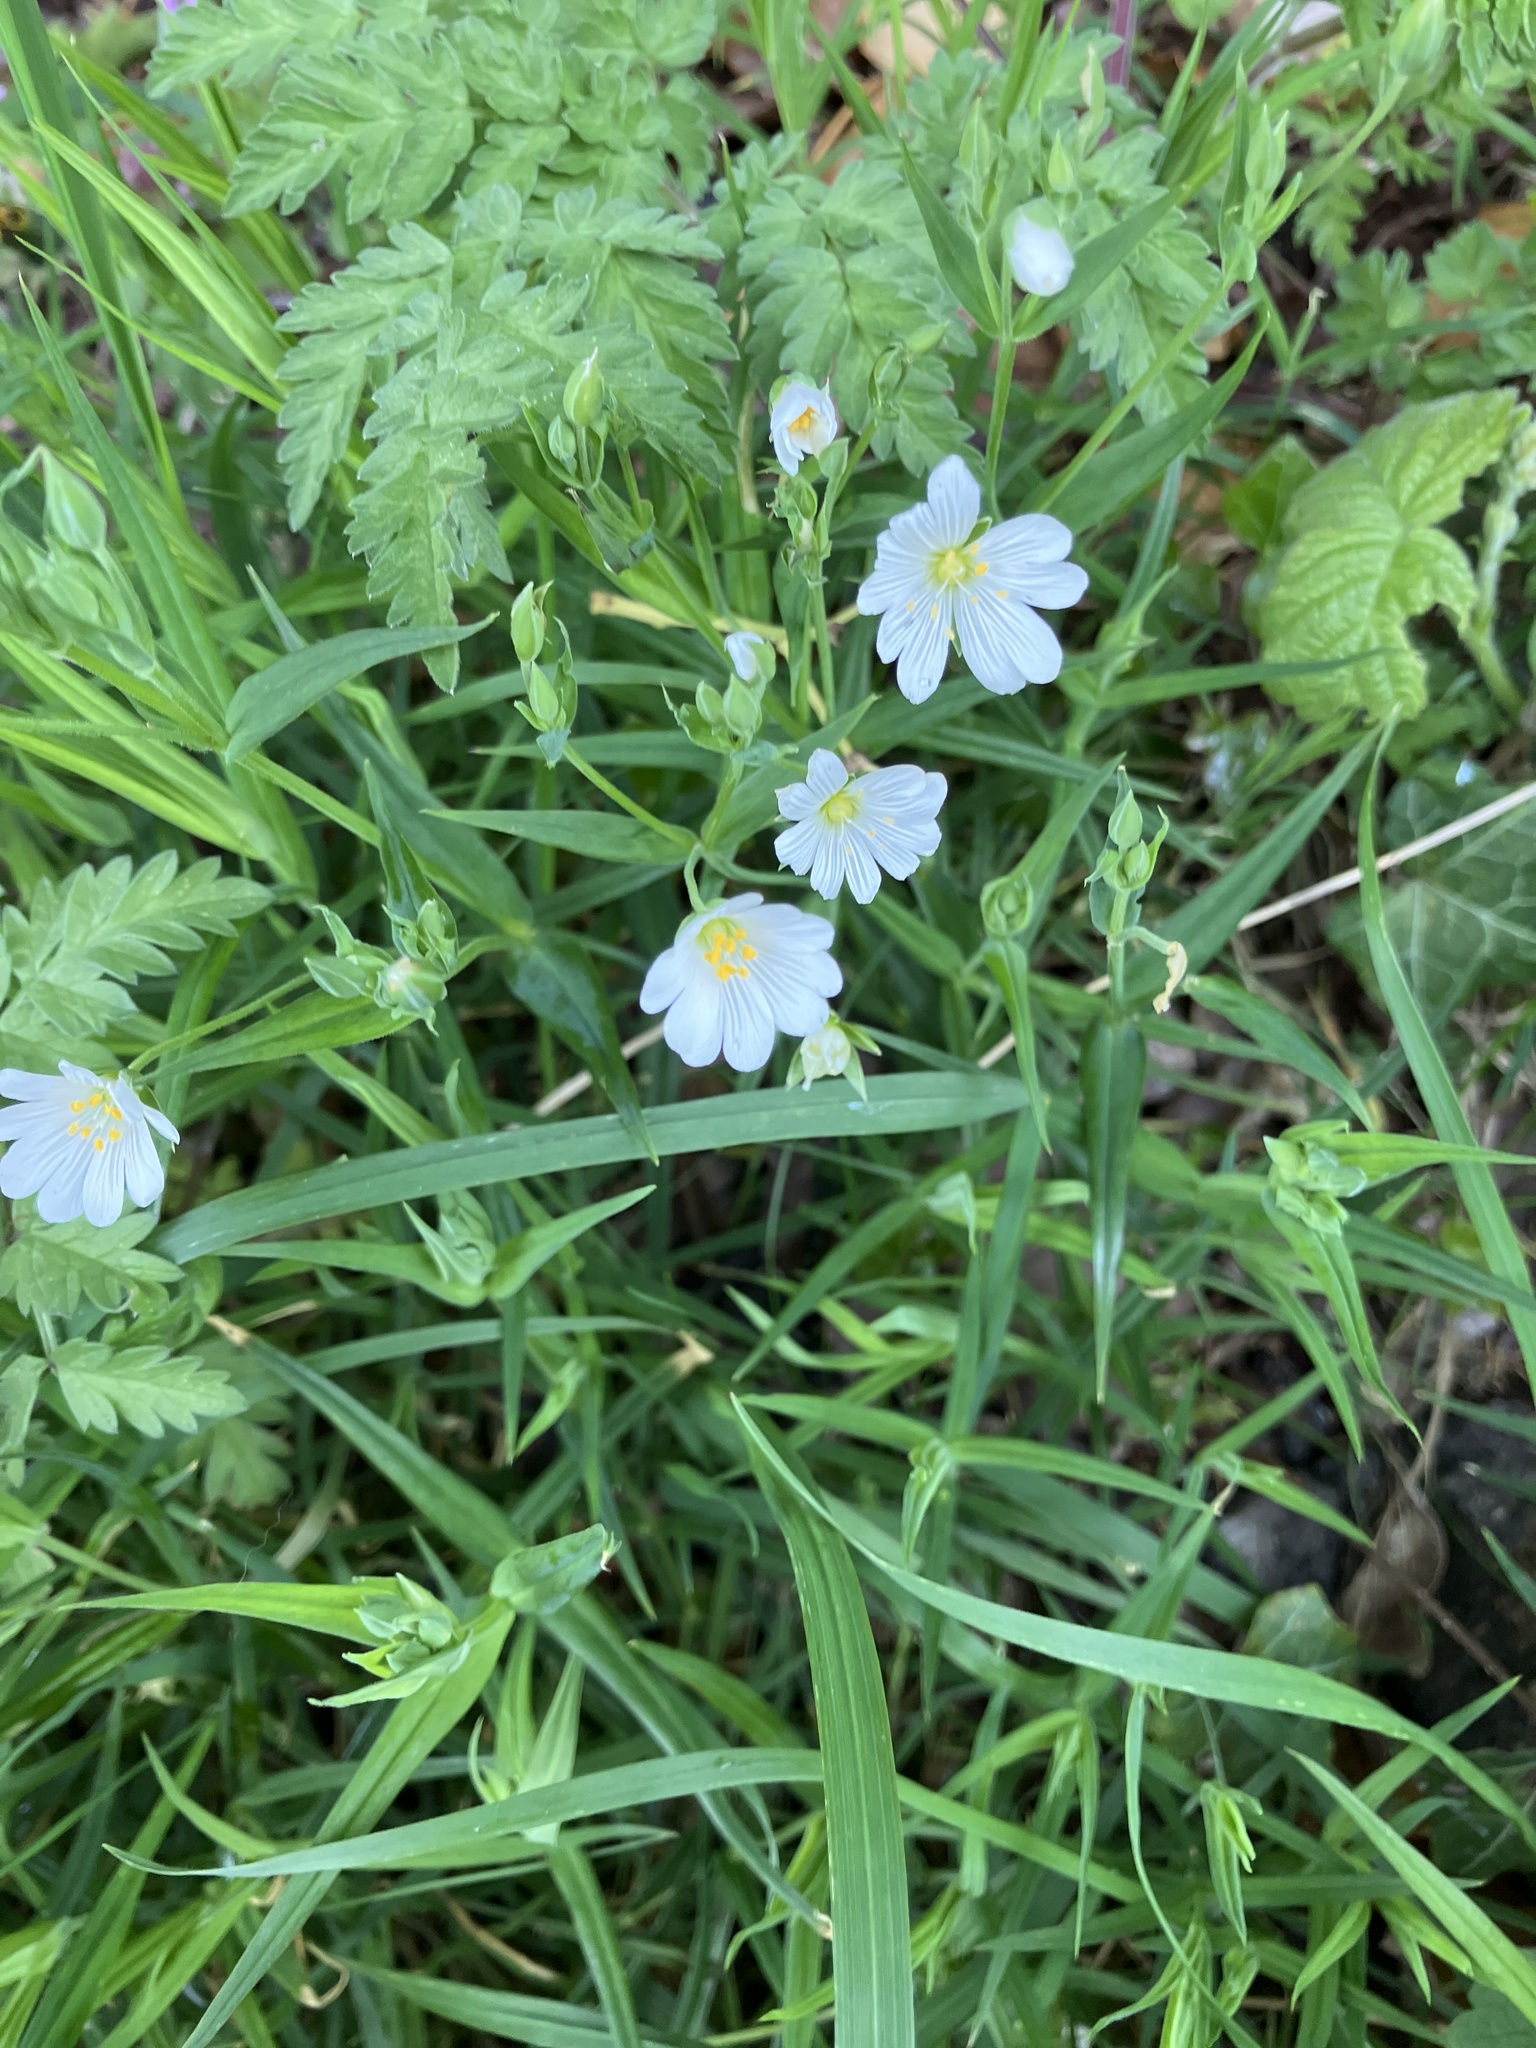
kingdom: Plantae
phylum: Tracheophyta
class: Magnoliopsida
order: Caryophyllales
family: Caryophyllaceae
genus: Rabelera
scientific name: Rabelera holostea
